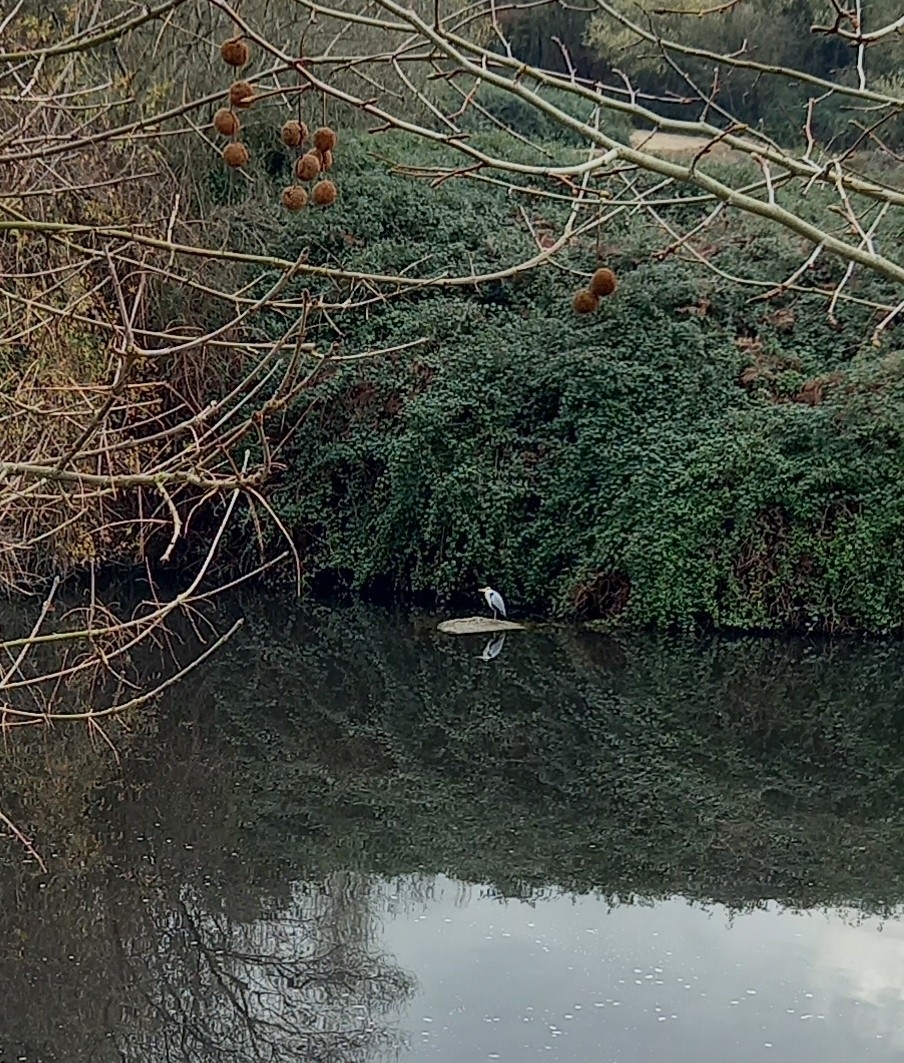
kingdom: Animalia
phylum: Chordata
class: Aves
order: Pelecaniformes
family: Ardeidae
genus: Ardea
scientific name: Ardea cinerea
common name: Grey heron
